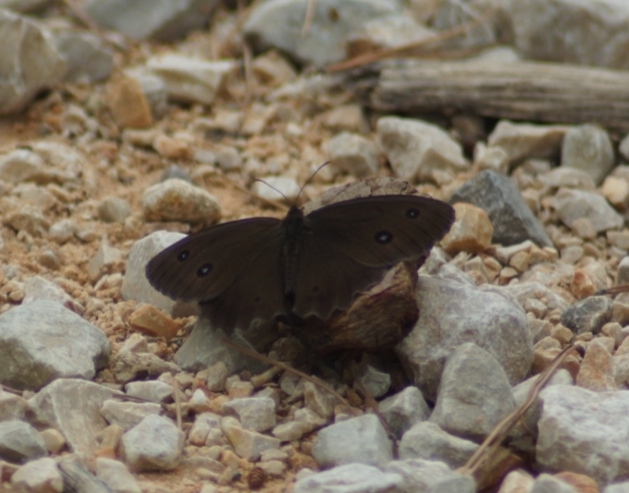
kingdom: Animalia
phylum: Arthropoda
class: Insecta
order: Lepidoptera
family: Nymphalidae
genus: Minois
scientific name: Minois dryas
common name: Dryad
